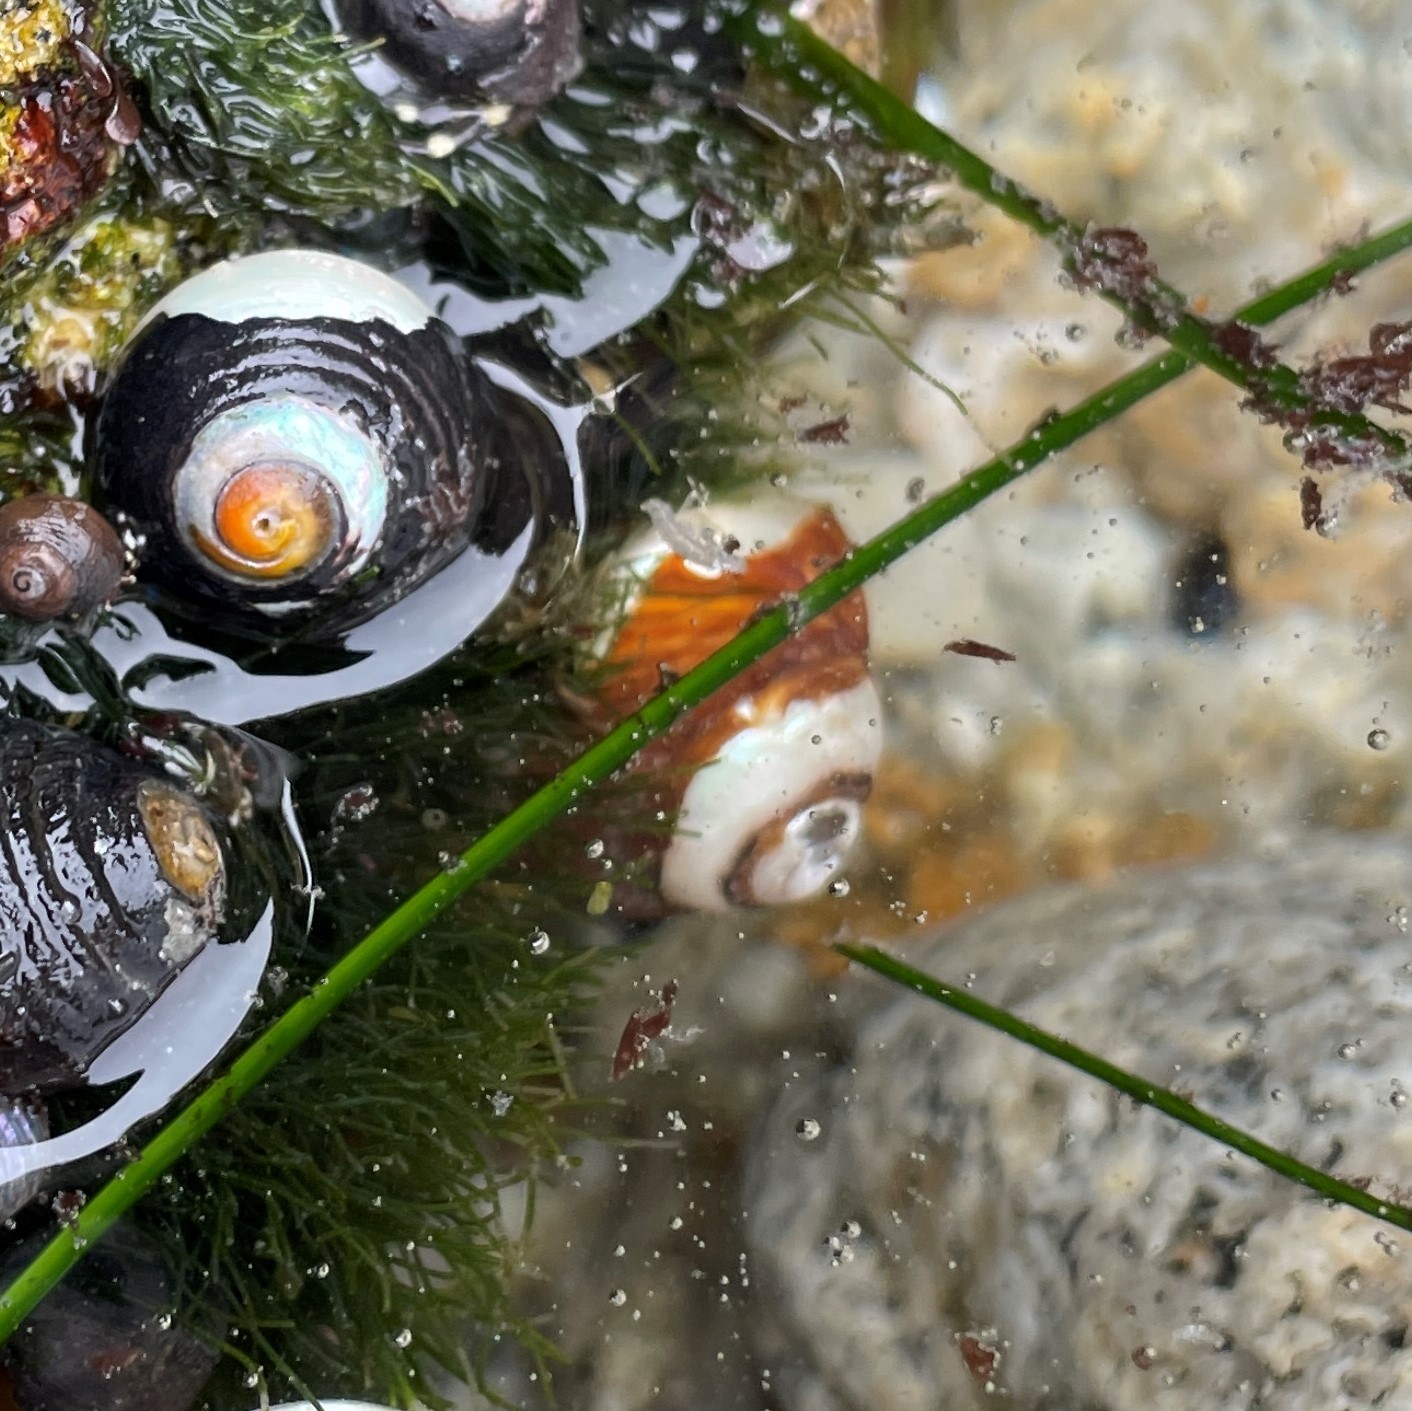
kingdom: Animalia
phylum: Mollusca
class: Gastropoda
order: Trochida
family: Tegulidae
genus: Tegula
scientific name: Tegula brunnea
